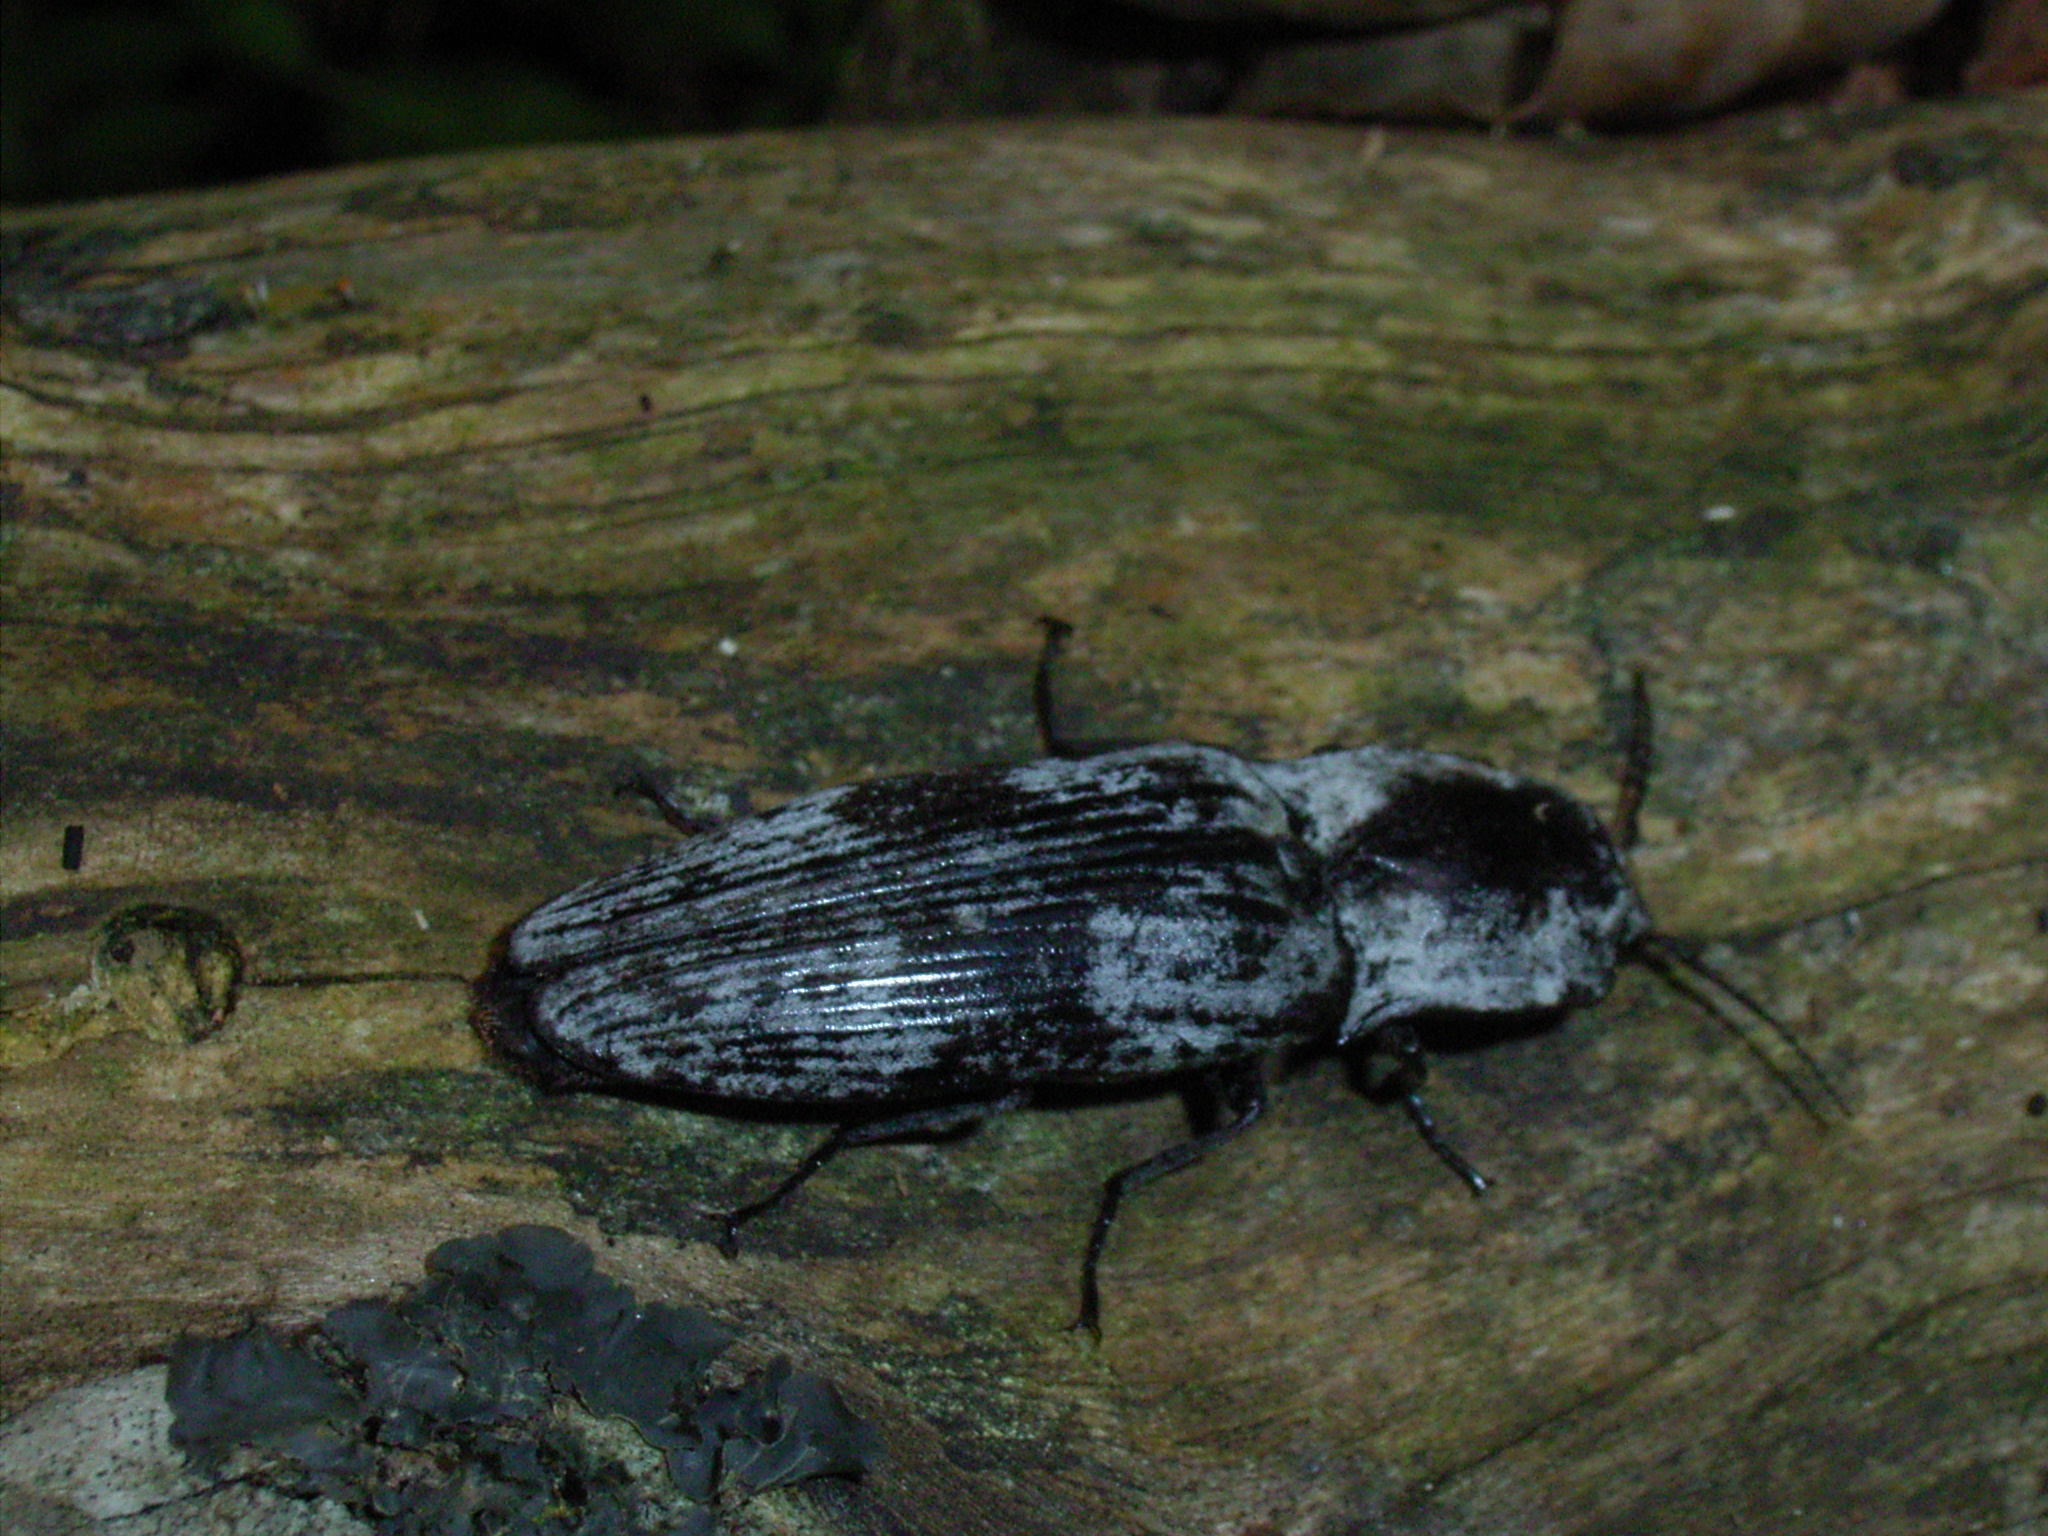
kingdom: Animalia
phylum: Arthropoda
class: Insecta
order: Coleoptera
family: Elateridae
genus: Aliteus
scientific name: Aliteus
